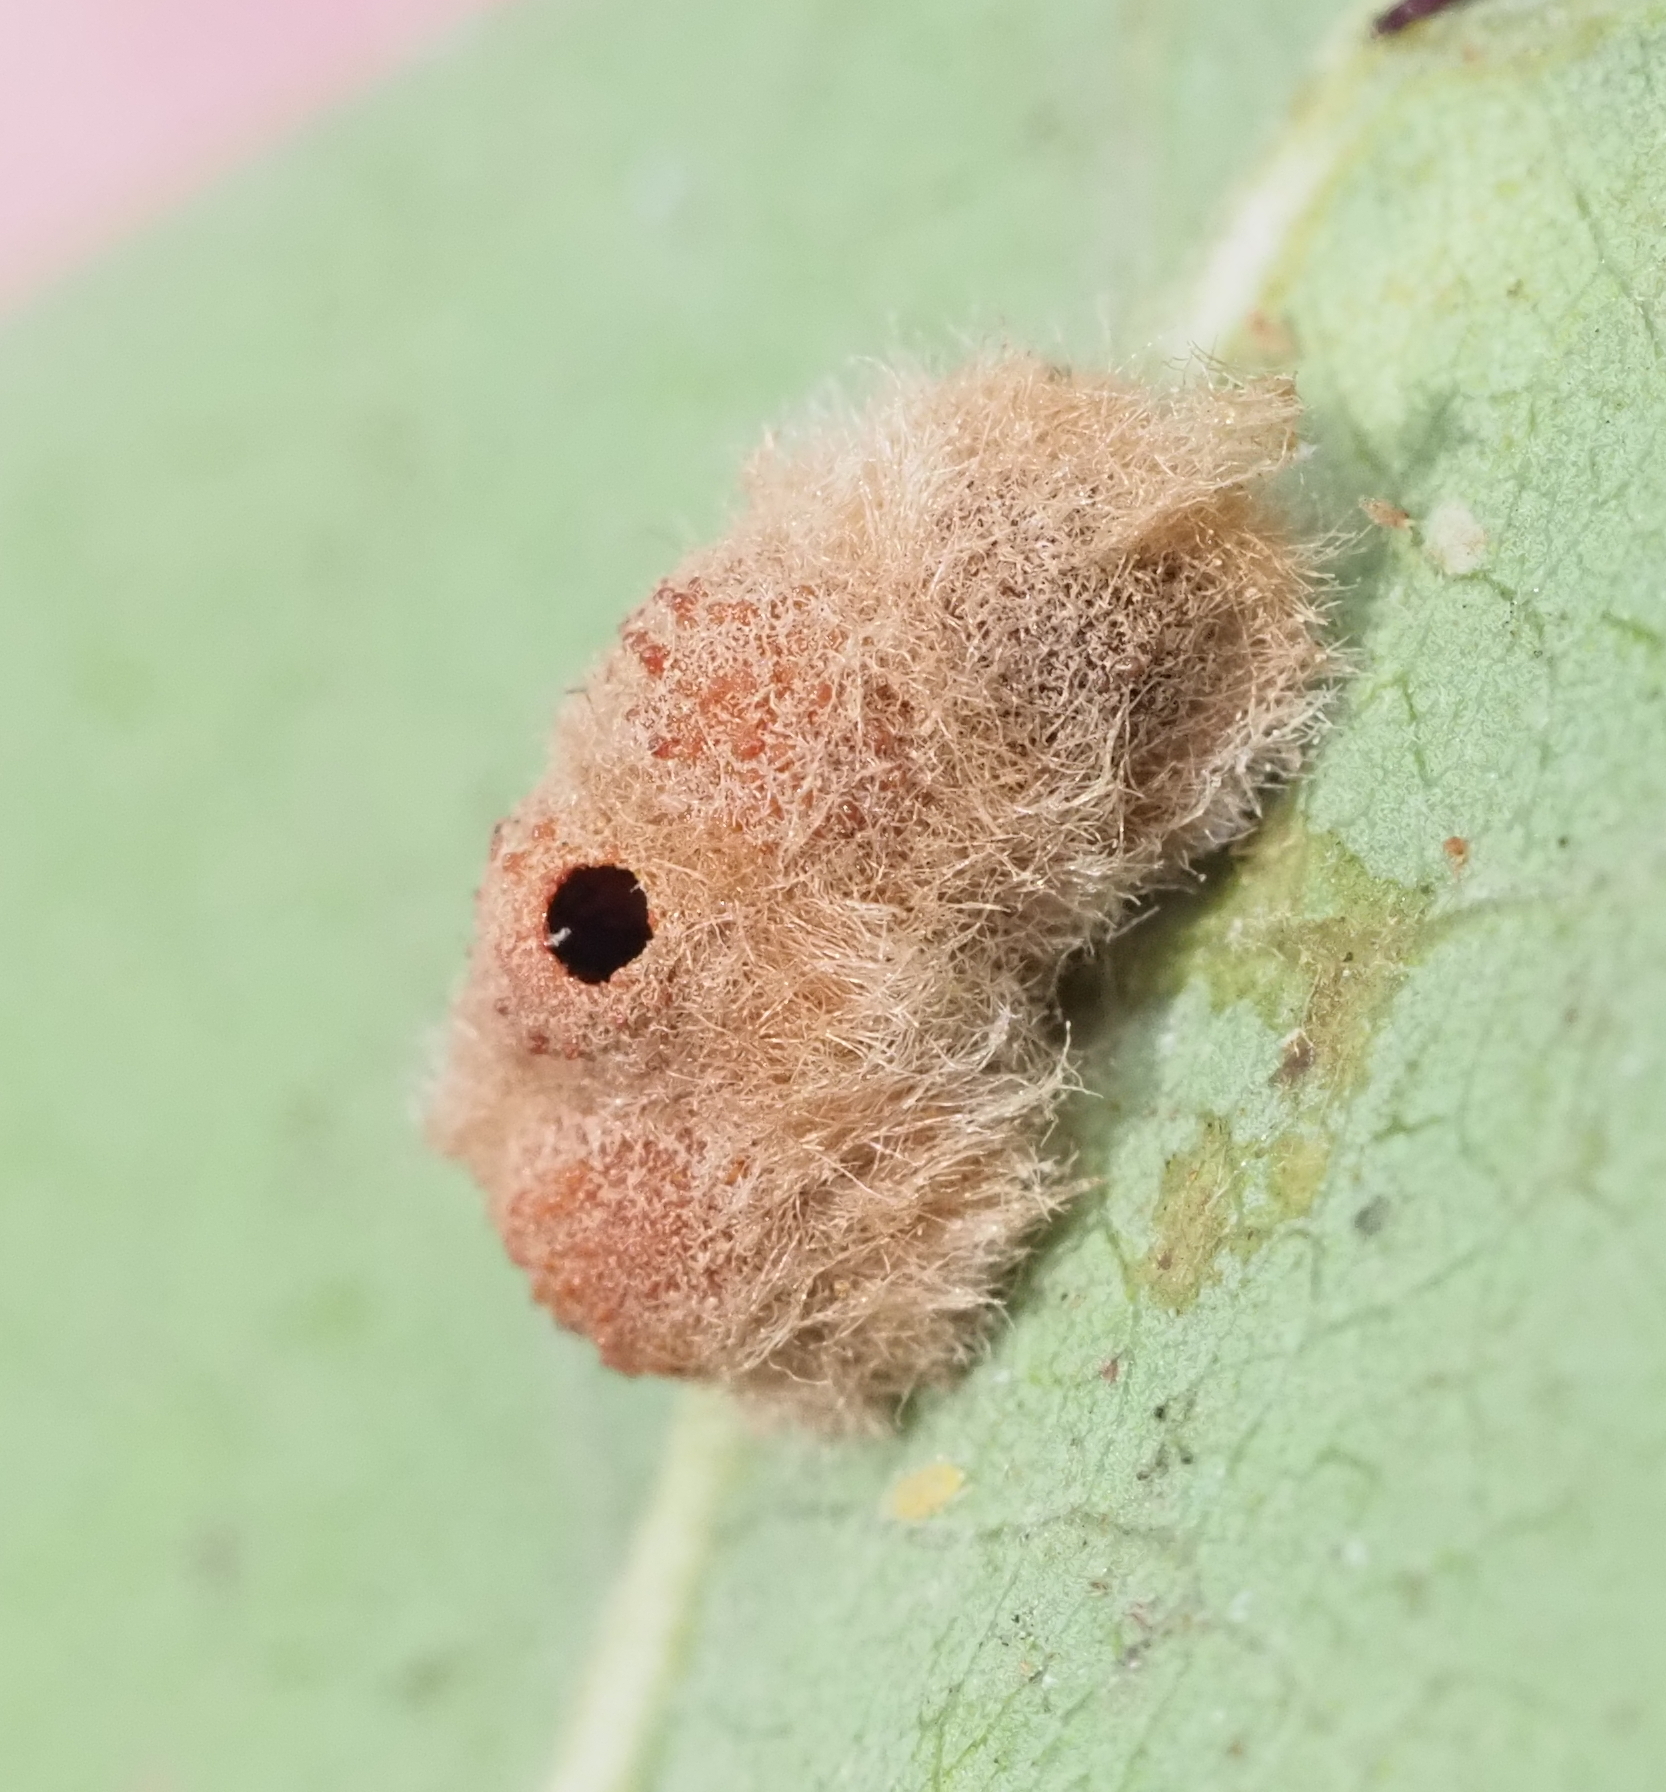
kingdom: Animalia
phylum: Arthropoda
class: Insecta
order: Hymenoptera
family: Cynipidae
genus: Andricus
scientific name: Andricus Druon pattoni
